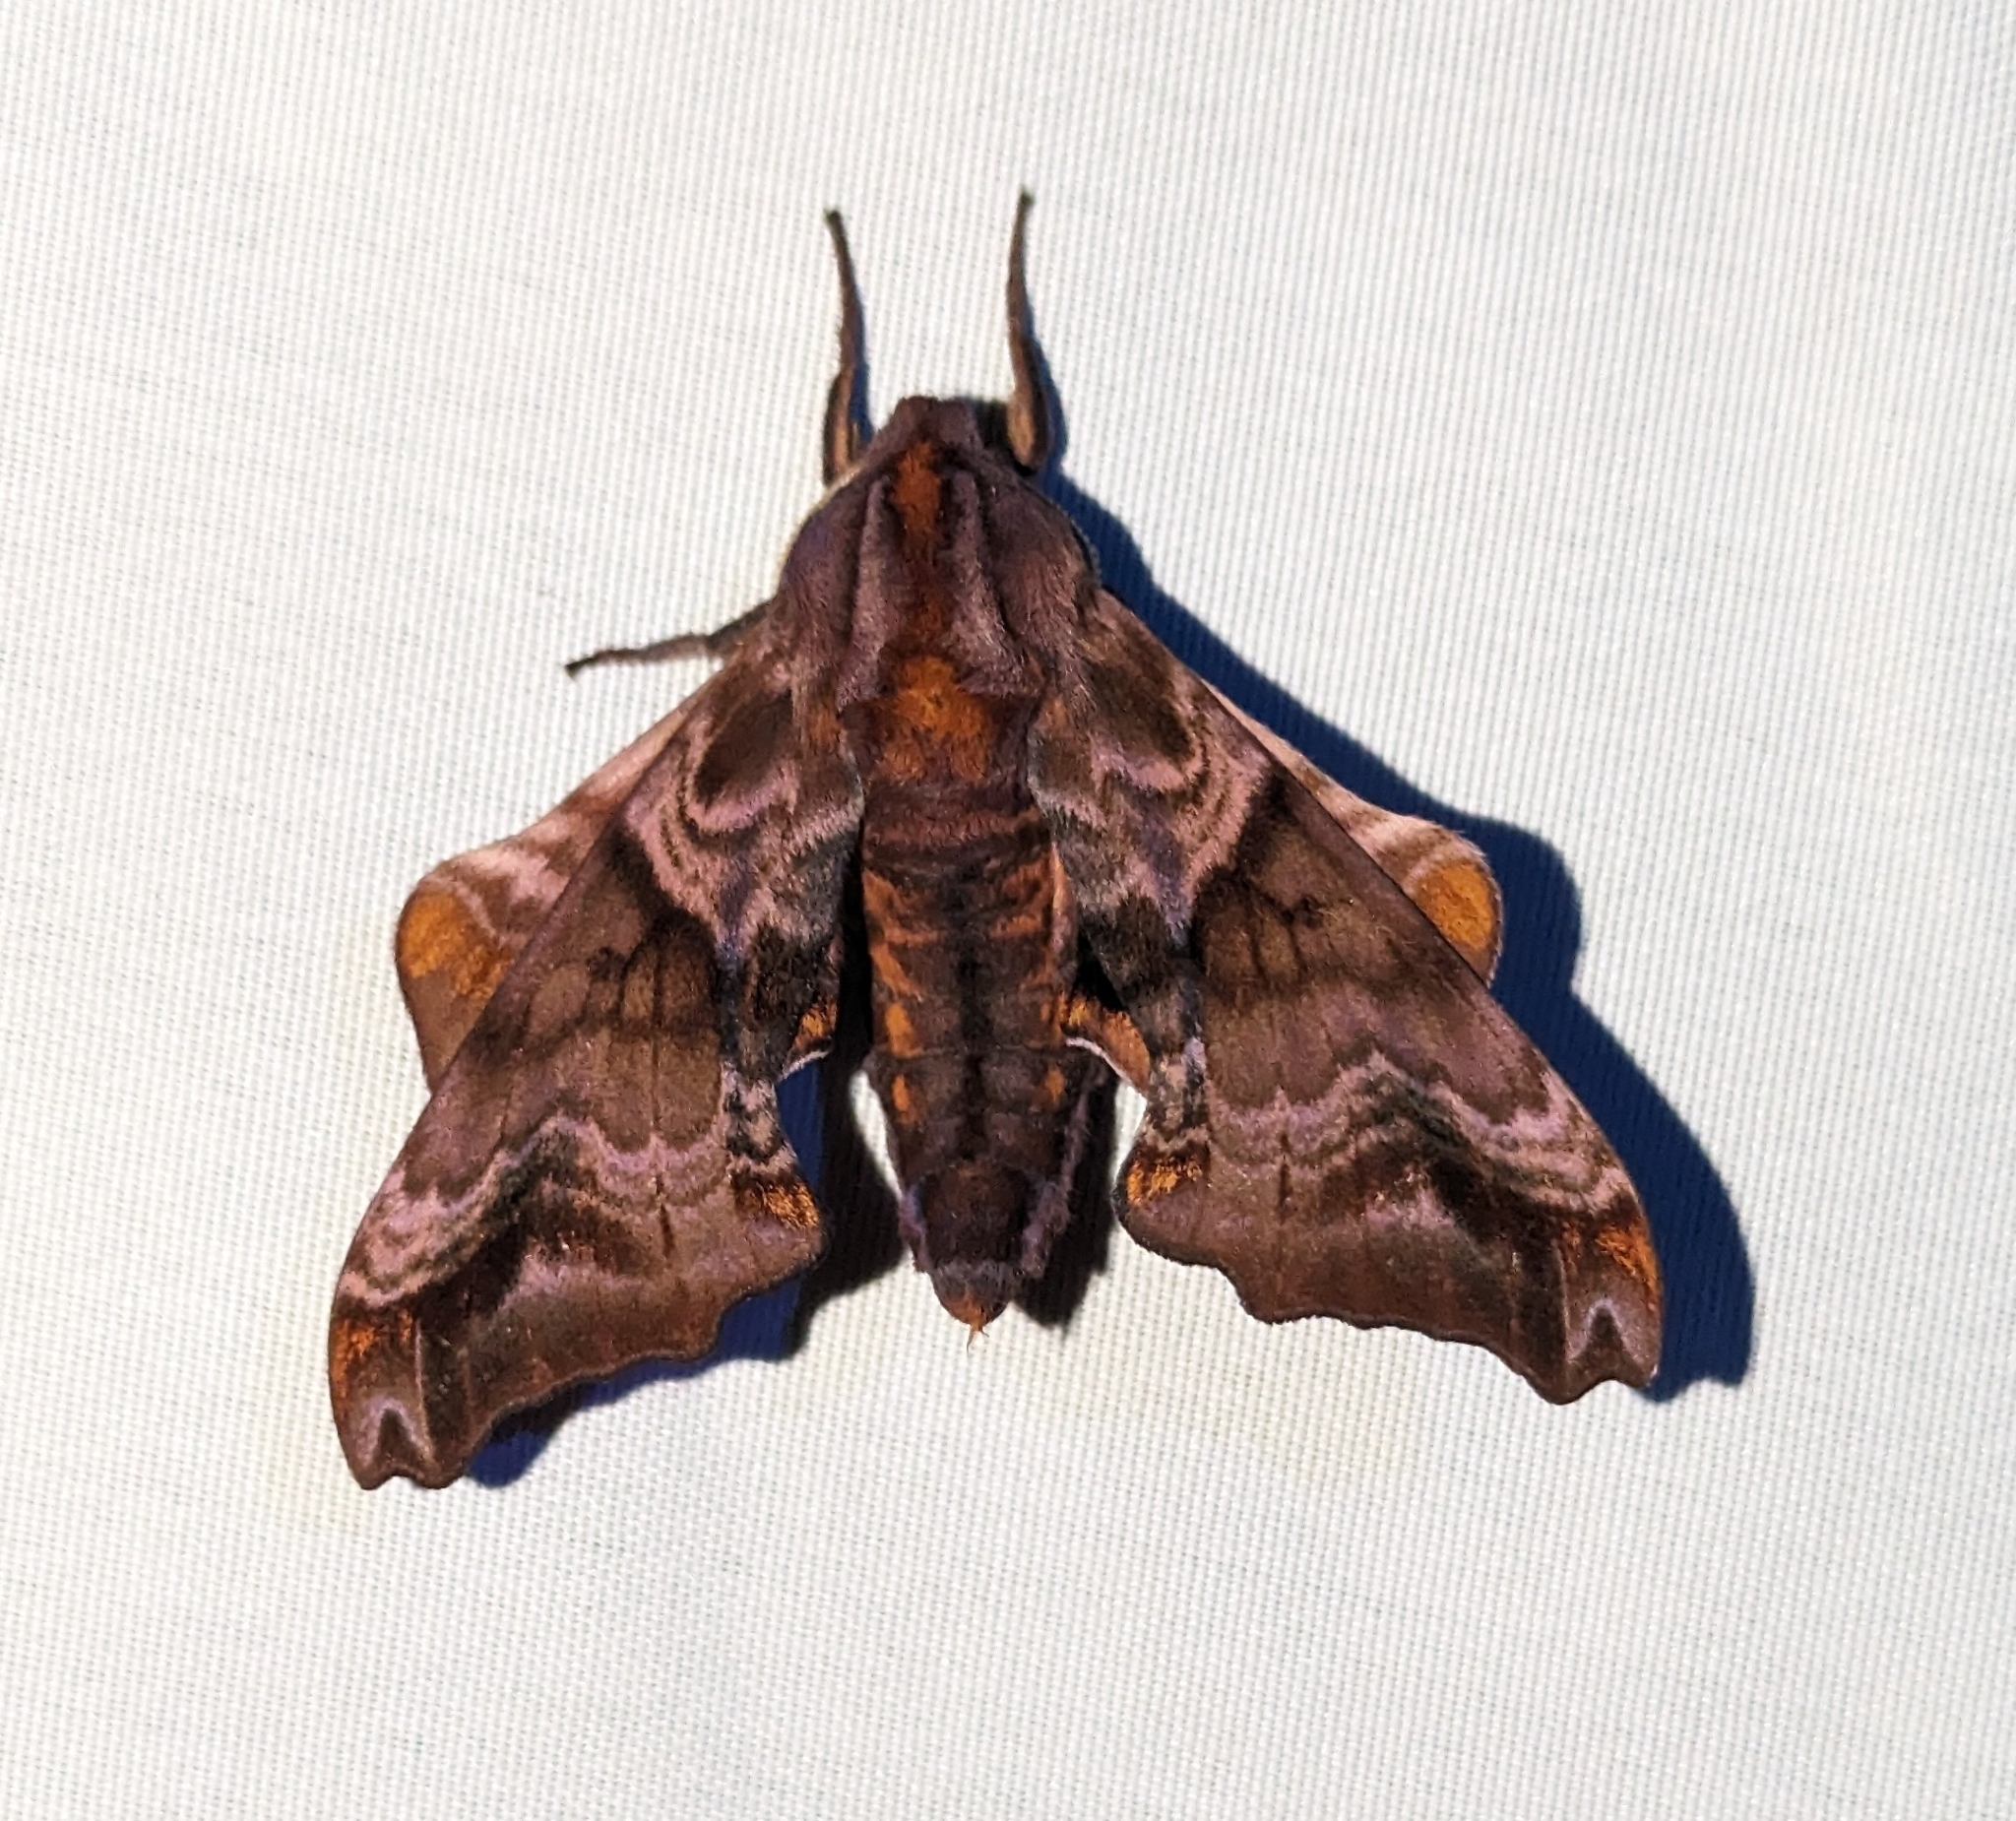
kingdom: Animalia
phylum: Arthropoda
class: Insecta
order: Lepidoptera
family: Sphingidae
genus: Paonias
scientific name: Paonias myops
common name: Small-eyed sphinx
